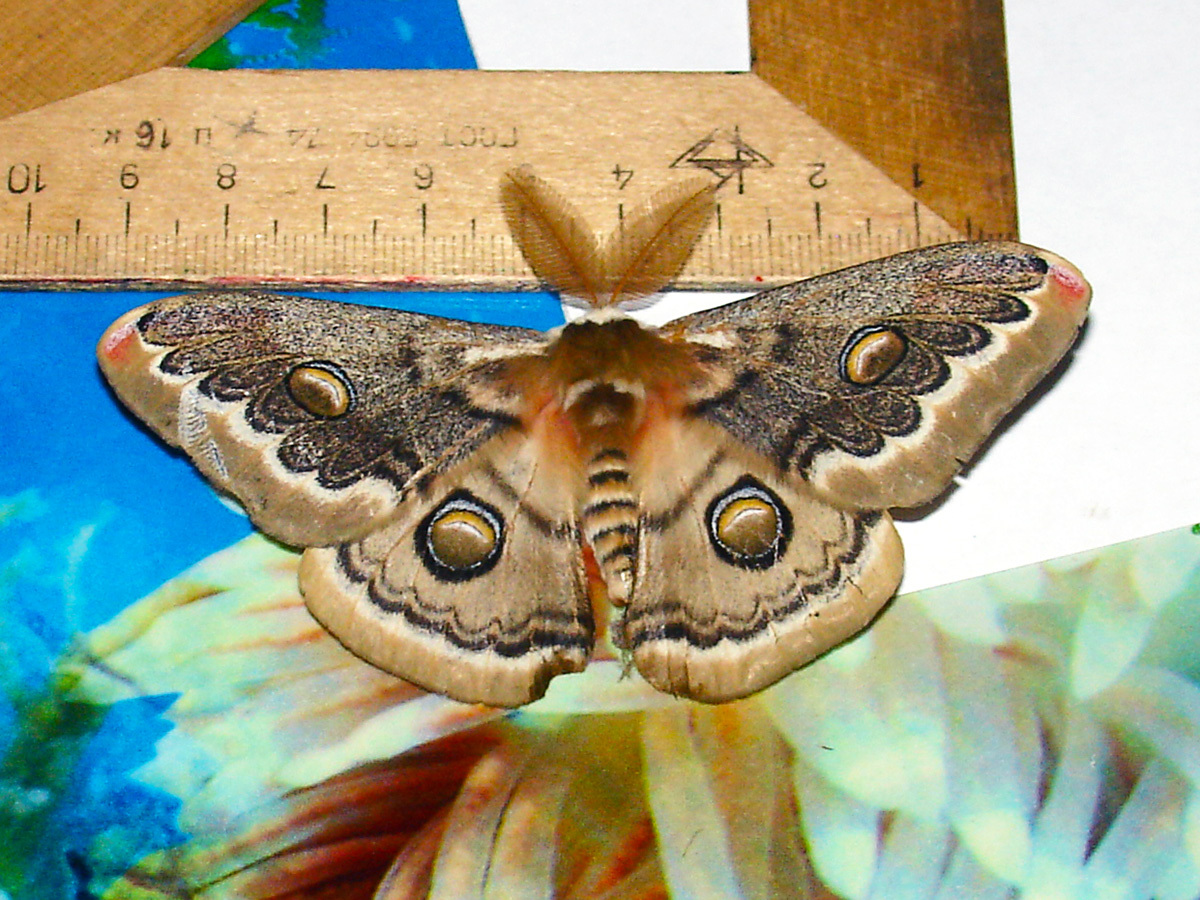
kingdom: Animalia
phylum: Arthropoda
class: Insecta
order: Lepidoptera
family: Saturniidae
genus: Neoris
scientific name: Neoris
